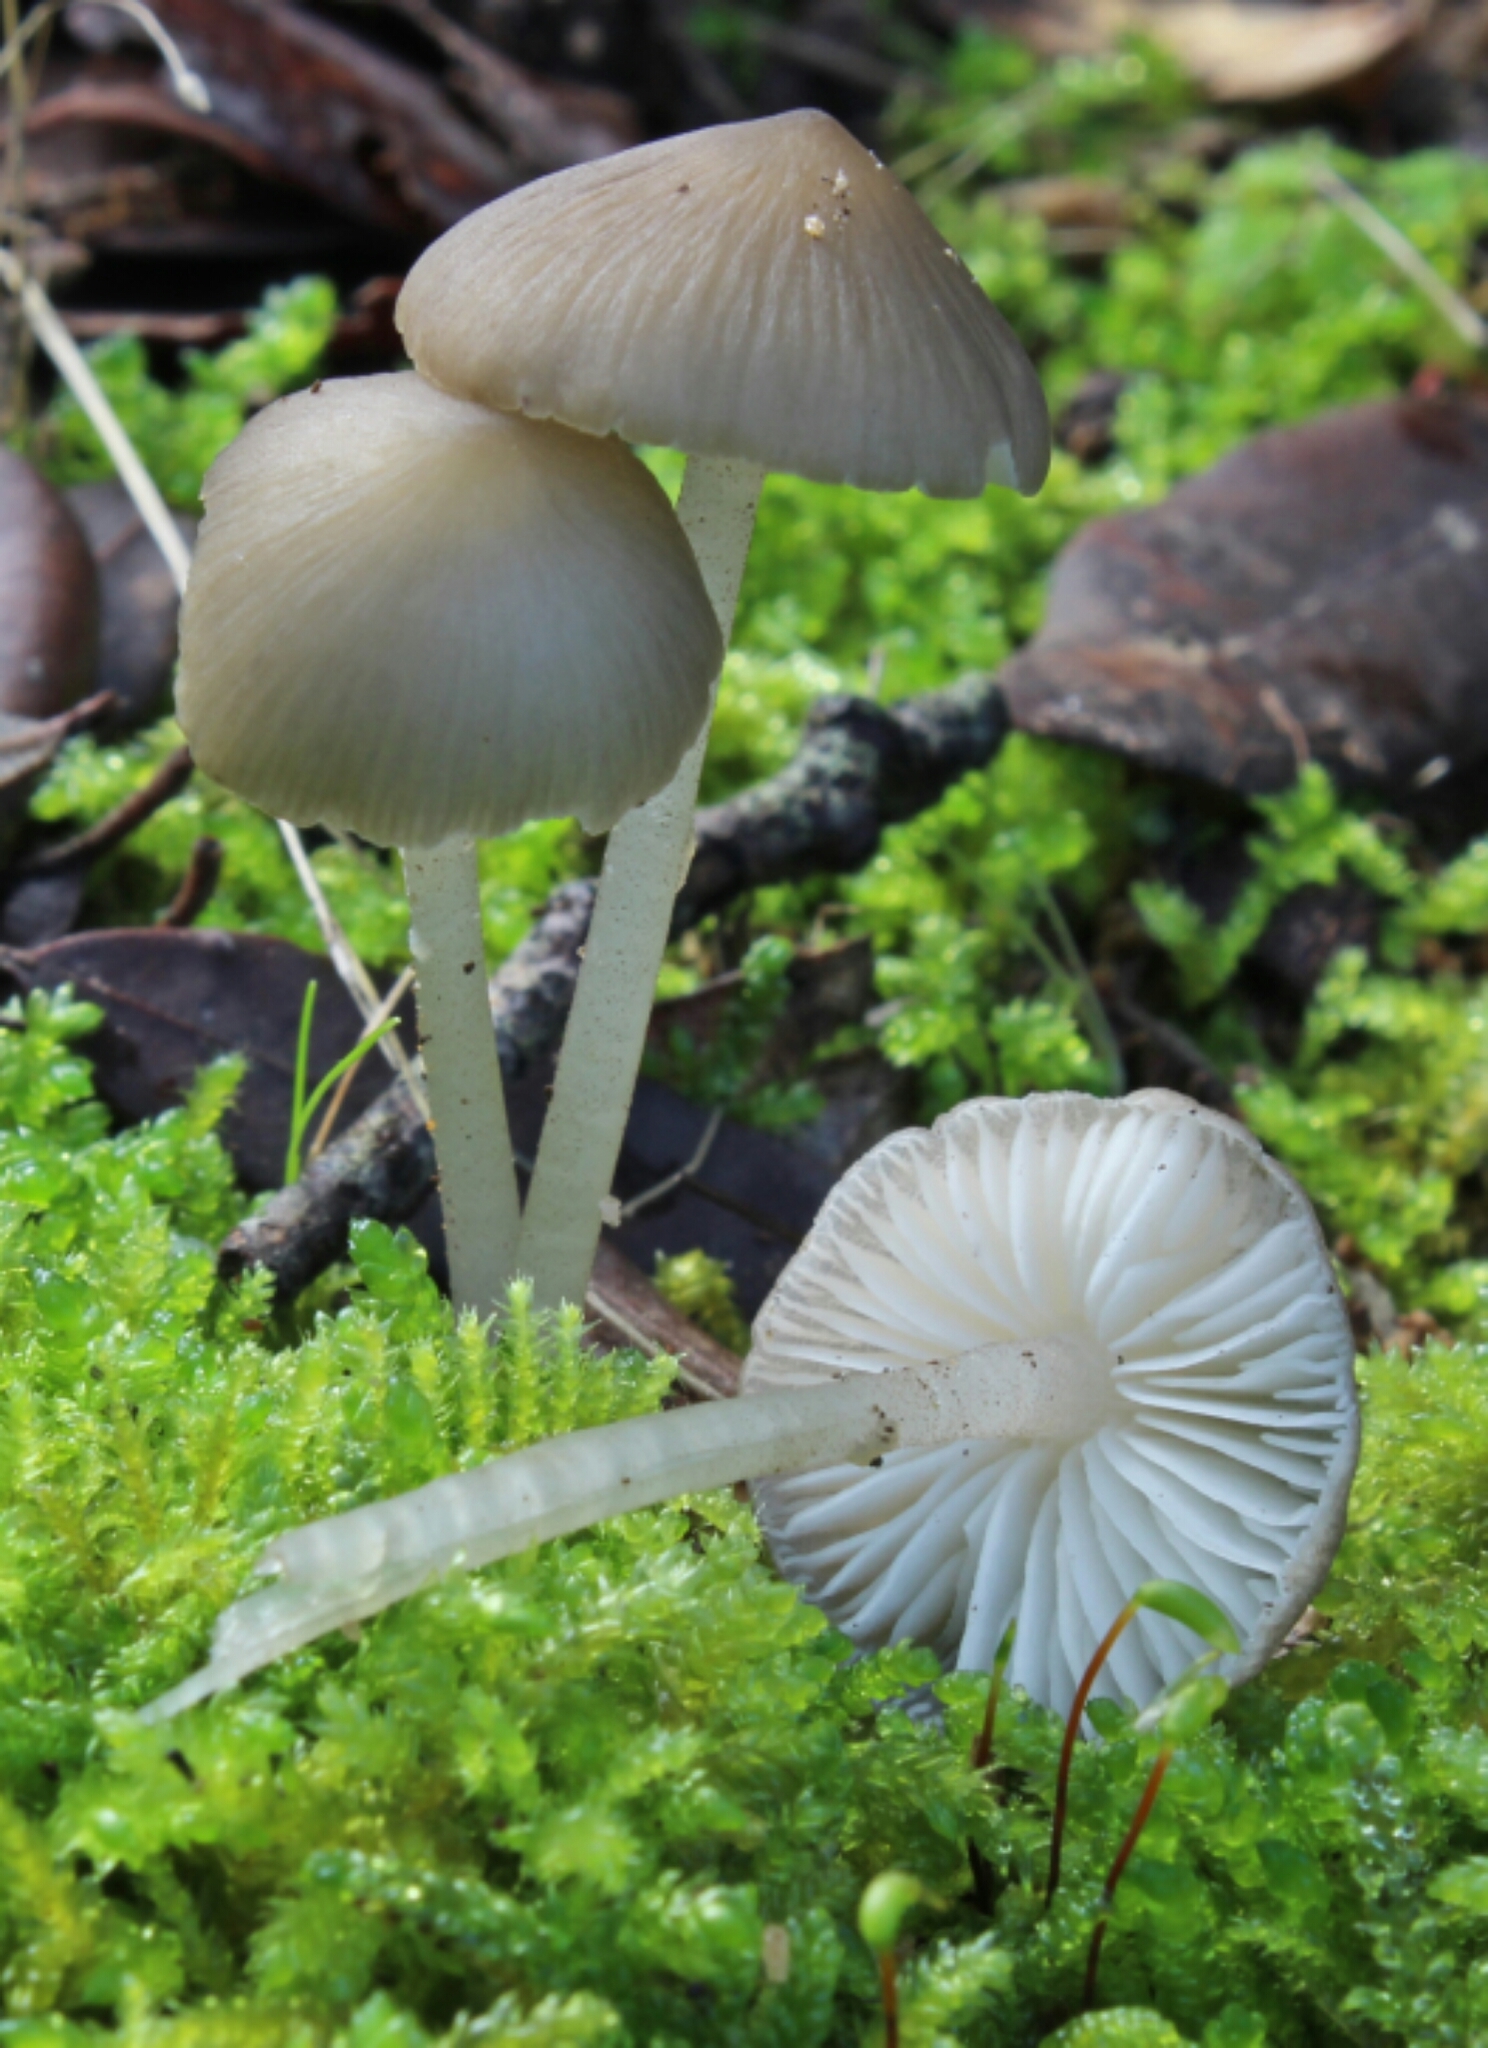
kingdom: Fungi
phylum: Basidiomycota
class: Agaricomycetes
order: Agaricales
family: Porotheleaceae
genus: Pseudohydropus
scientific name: Pseudohydropus floccipes
